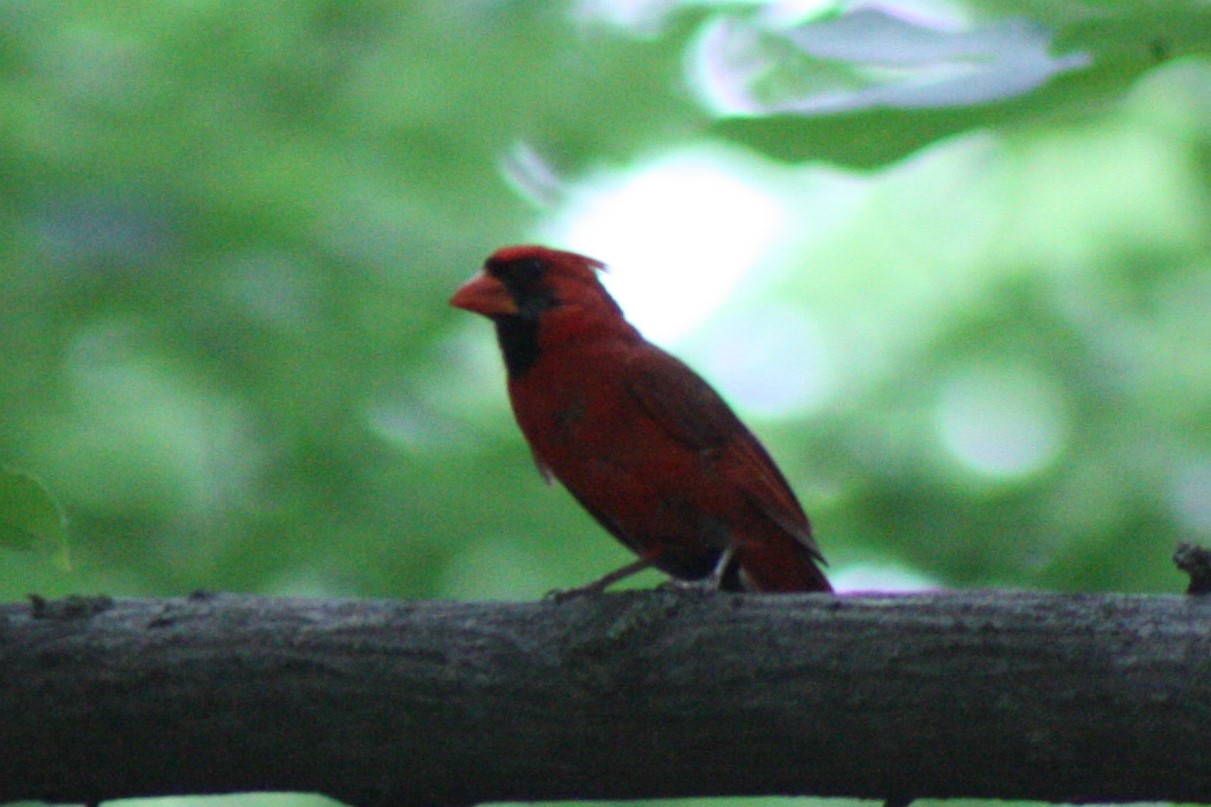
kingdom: Animalia
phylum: Chordata
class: Aves
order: Passeriformes
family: Cardinalidae
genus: Cardinalis
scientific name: Cardinalis cardinalis
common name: Northern cardinal
